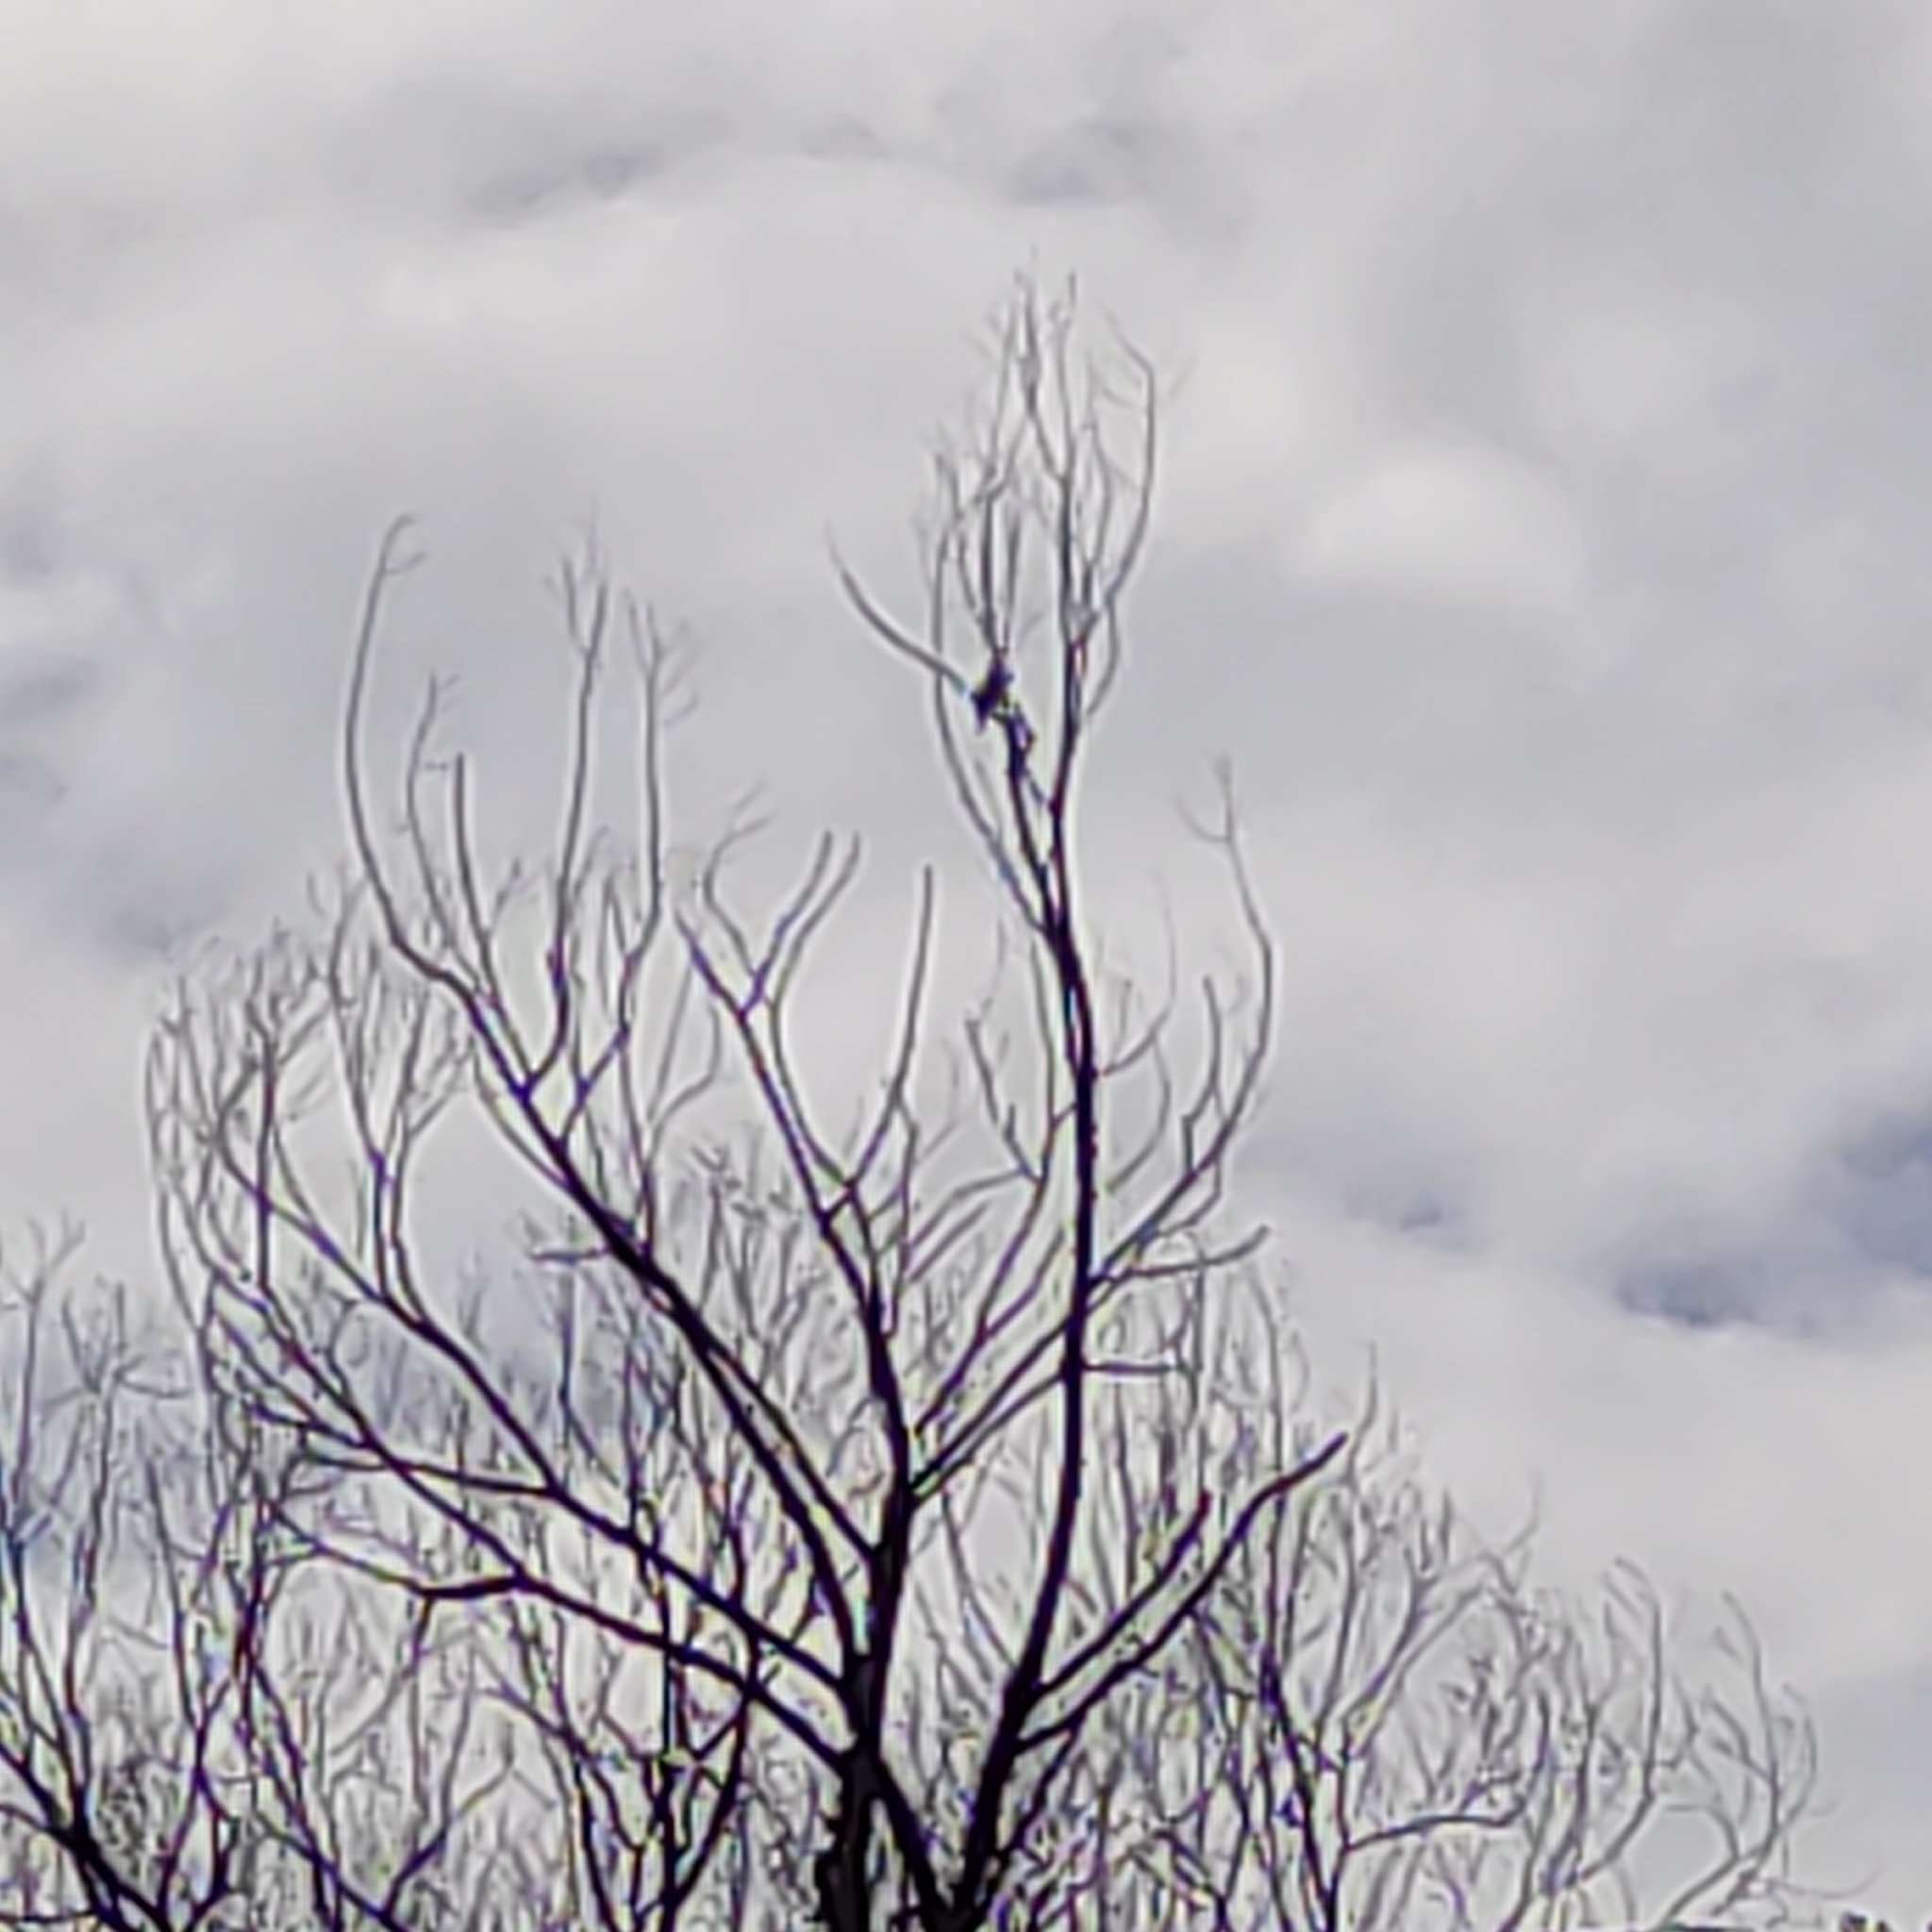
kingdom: Animalia
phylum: Chordata
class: Aves
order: Coraciiformes
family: Alcedinidae
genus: Todiramphus
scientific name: Todiramphus sanctus
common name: Sacred kingfisher
